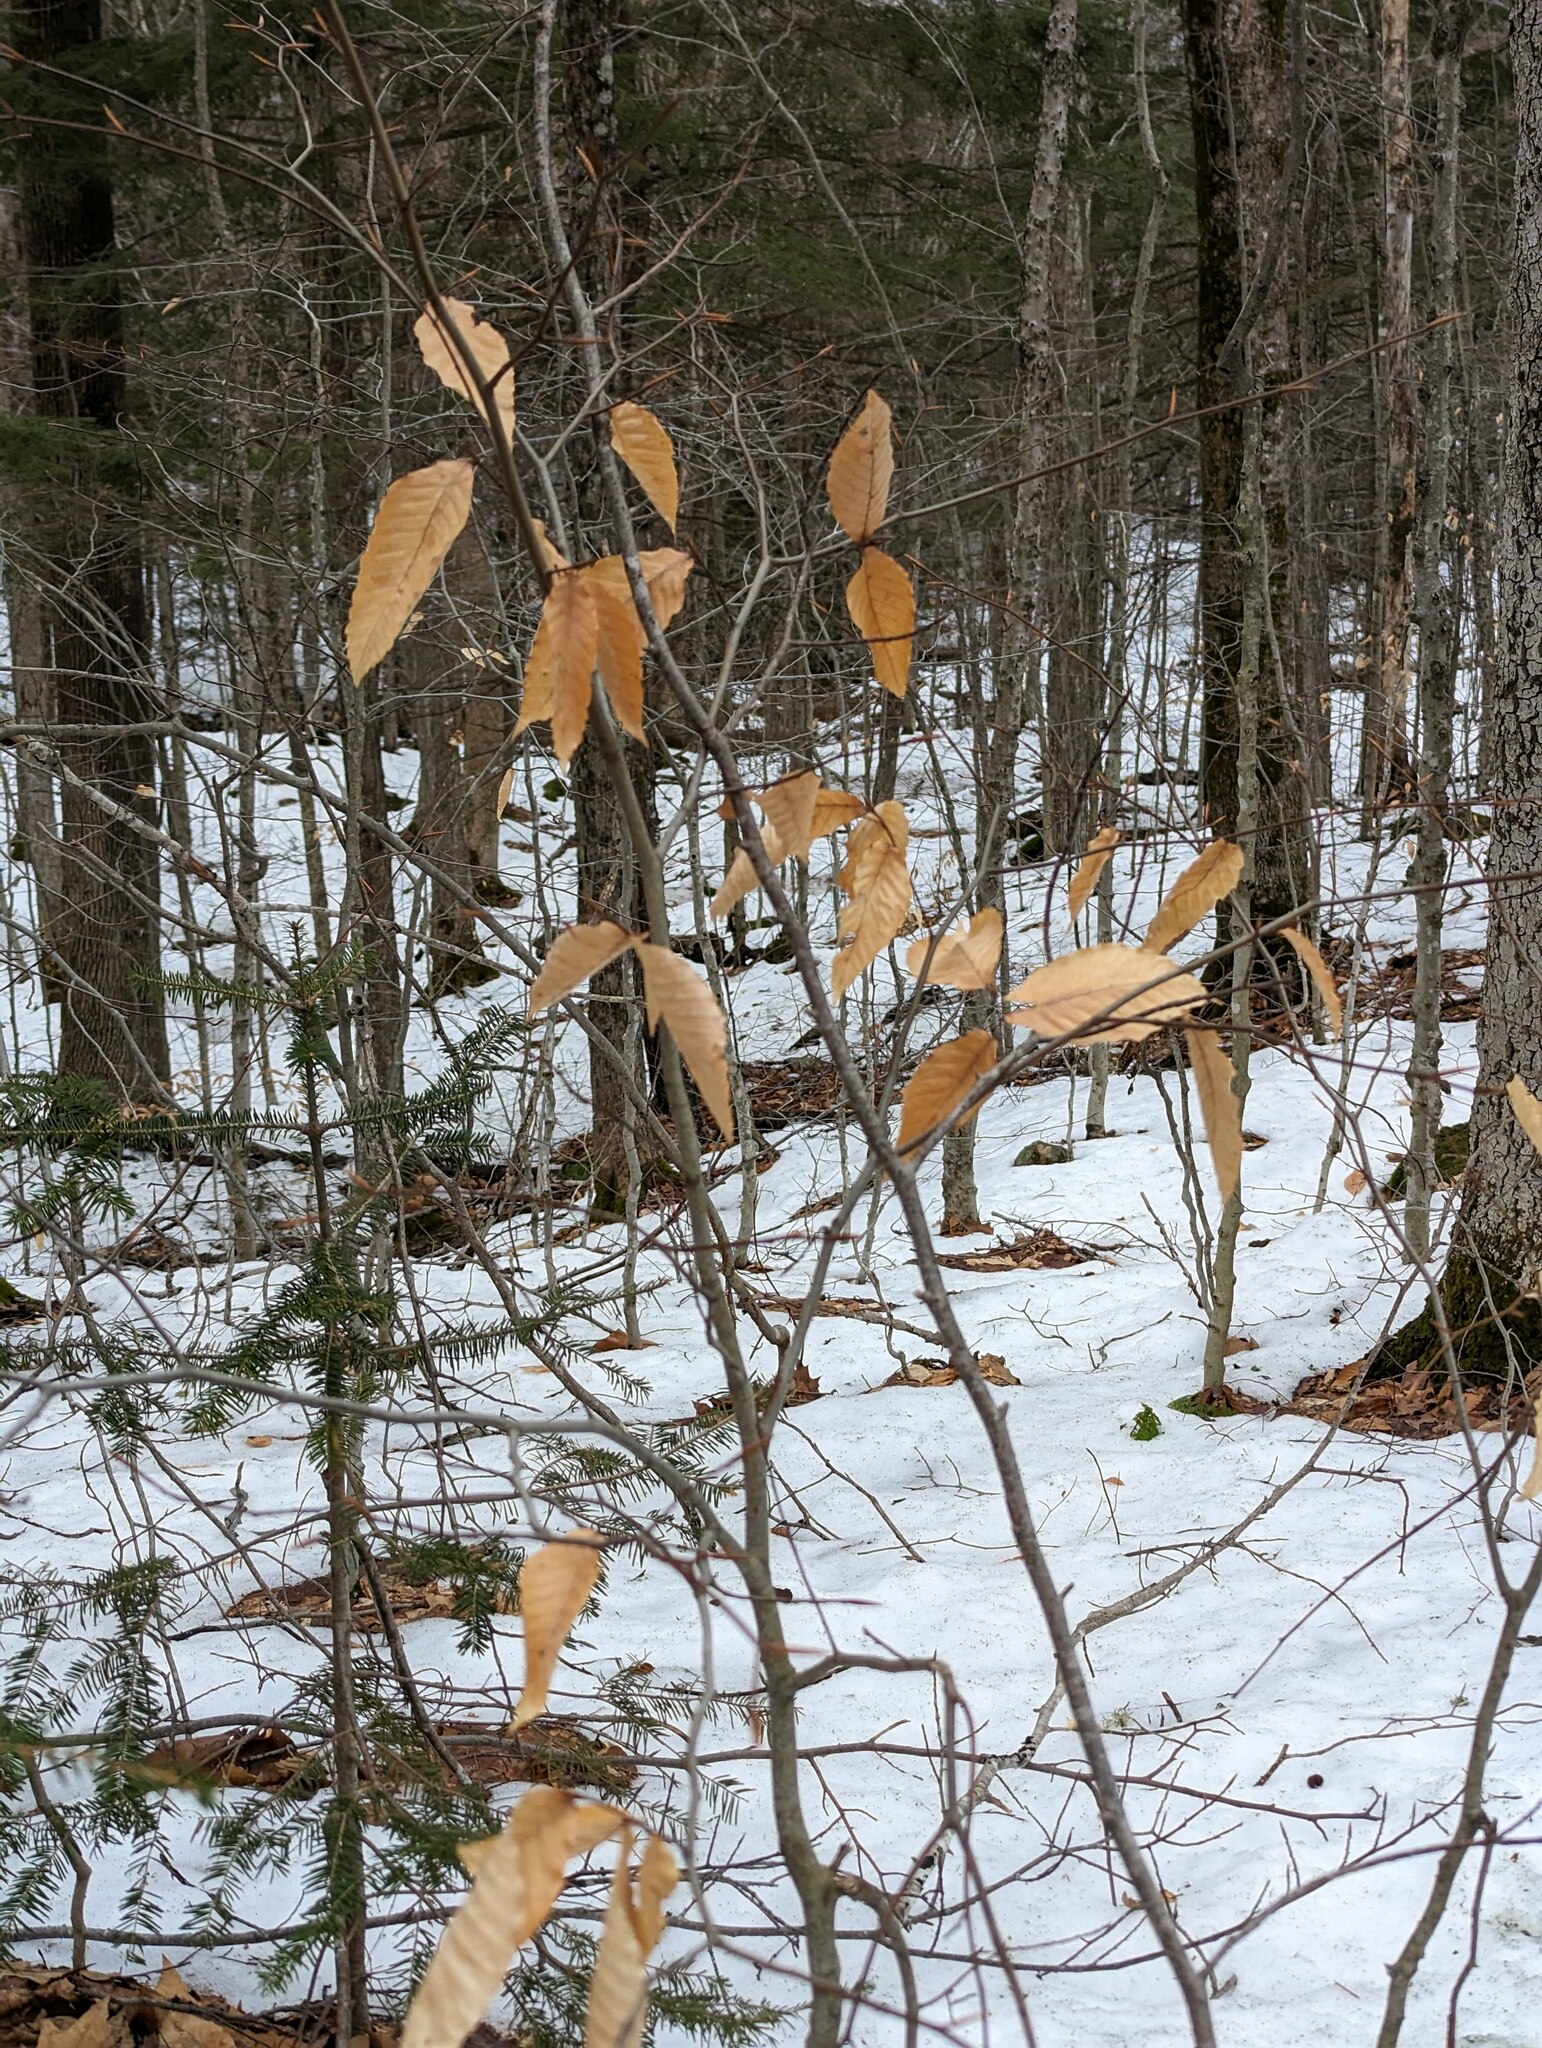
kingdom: Plantae
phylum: Tracheophyta
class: Magnoliopsida
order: Fagales
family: Fagaceae
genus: Fagus
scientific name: Fagus grandifolia
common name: American beech
